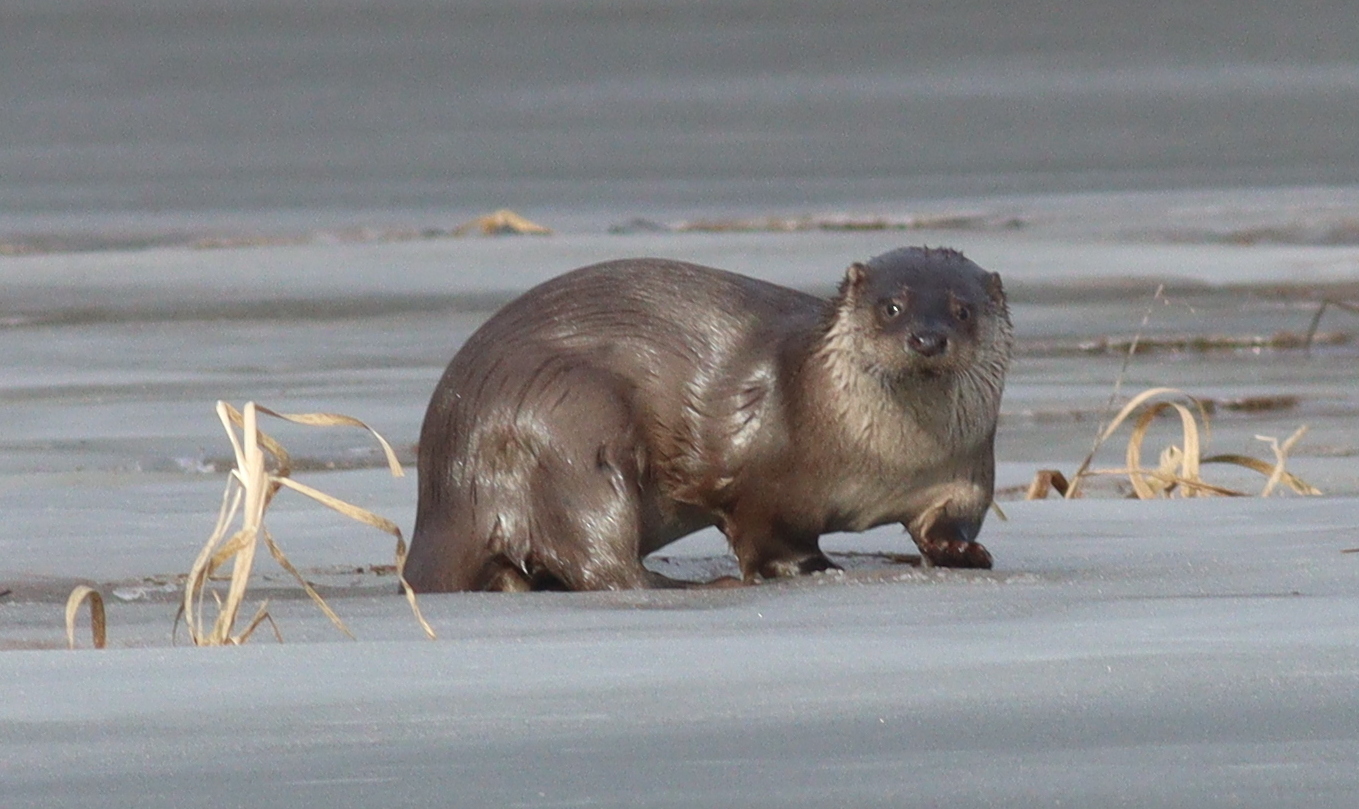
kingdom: Animalia
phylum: Chordata
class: Mammalia
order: Carnivora
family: Mustelidae
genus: Lutra
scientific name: Lutra lutra
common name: European otter
